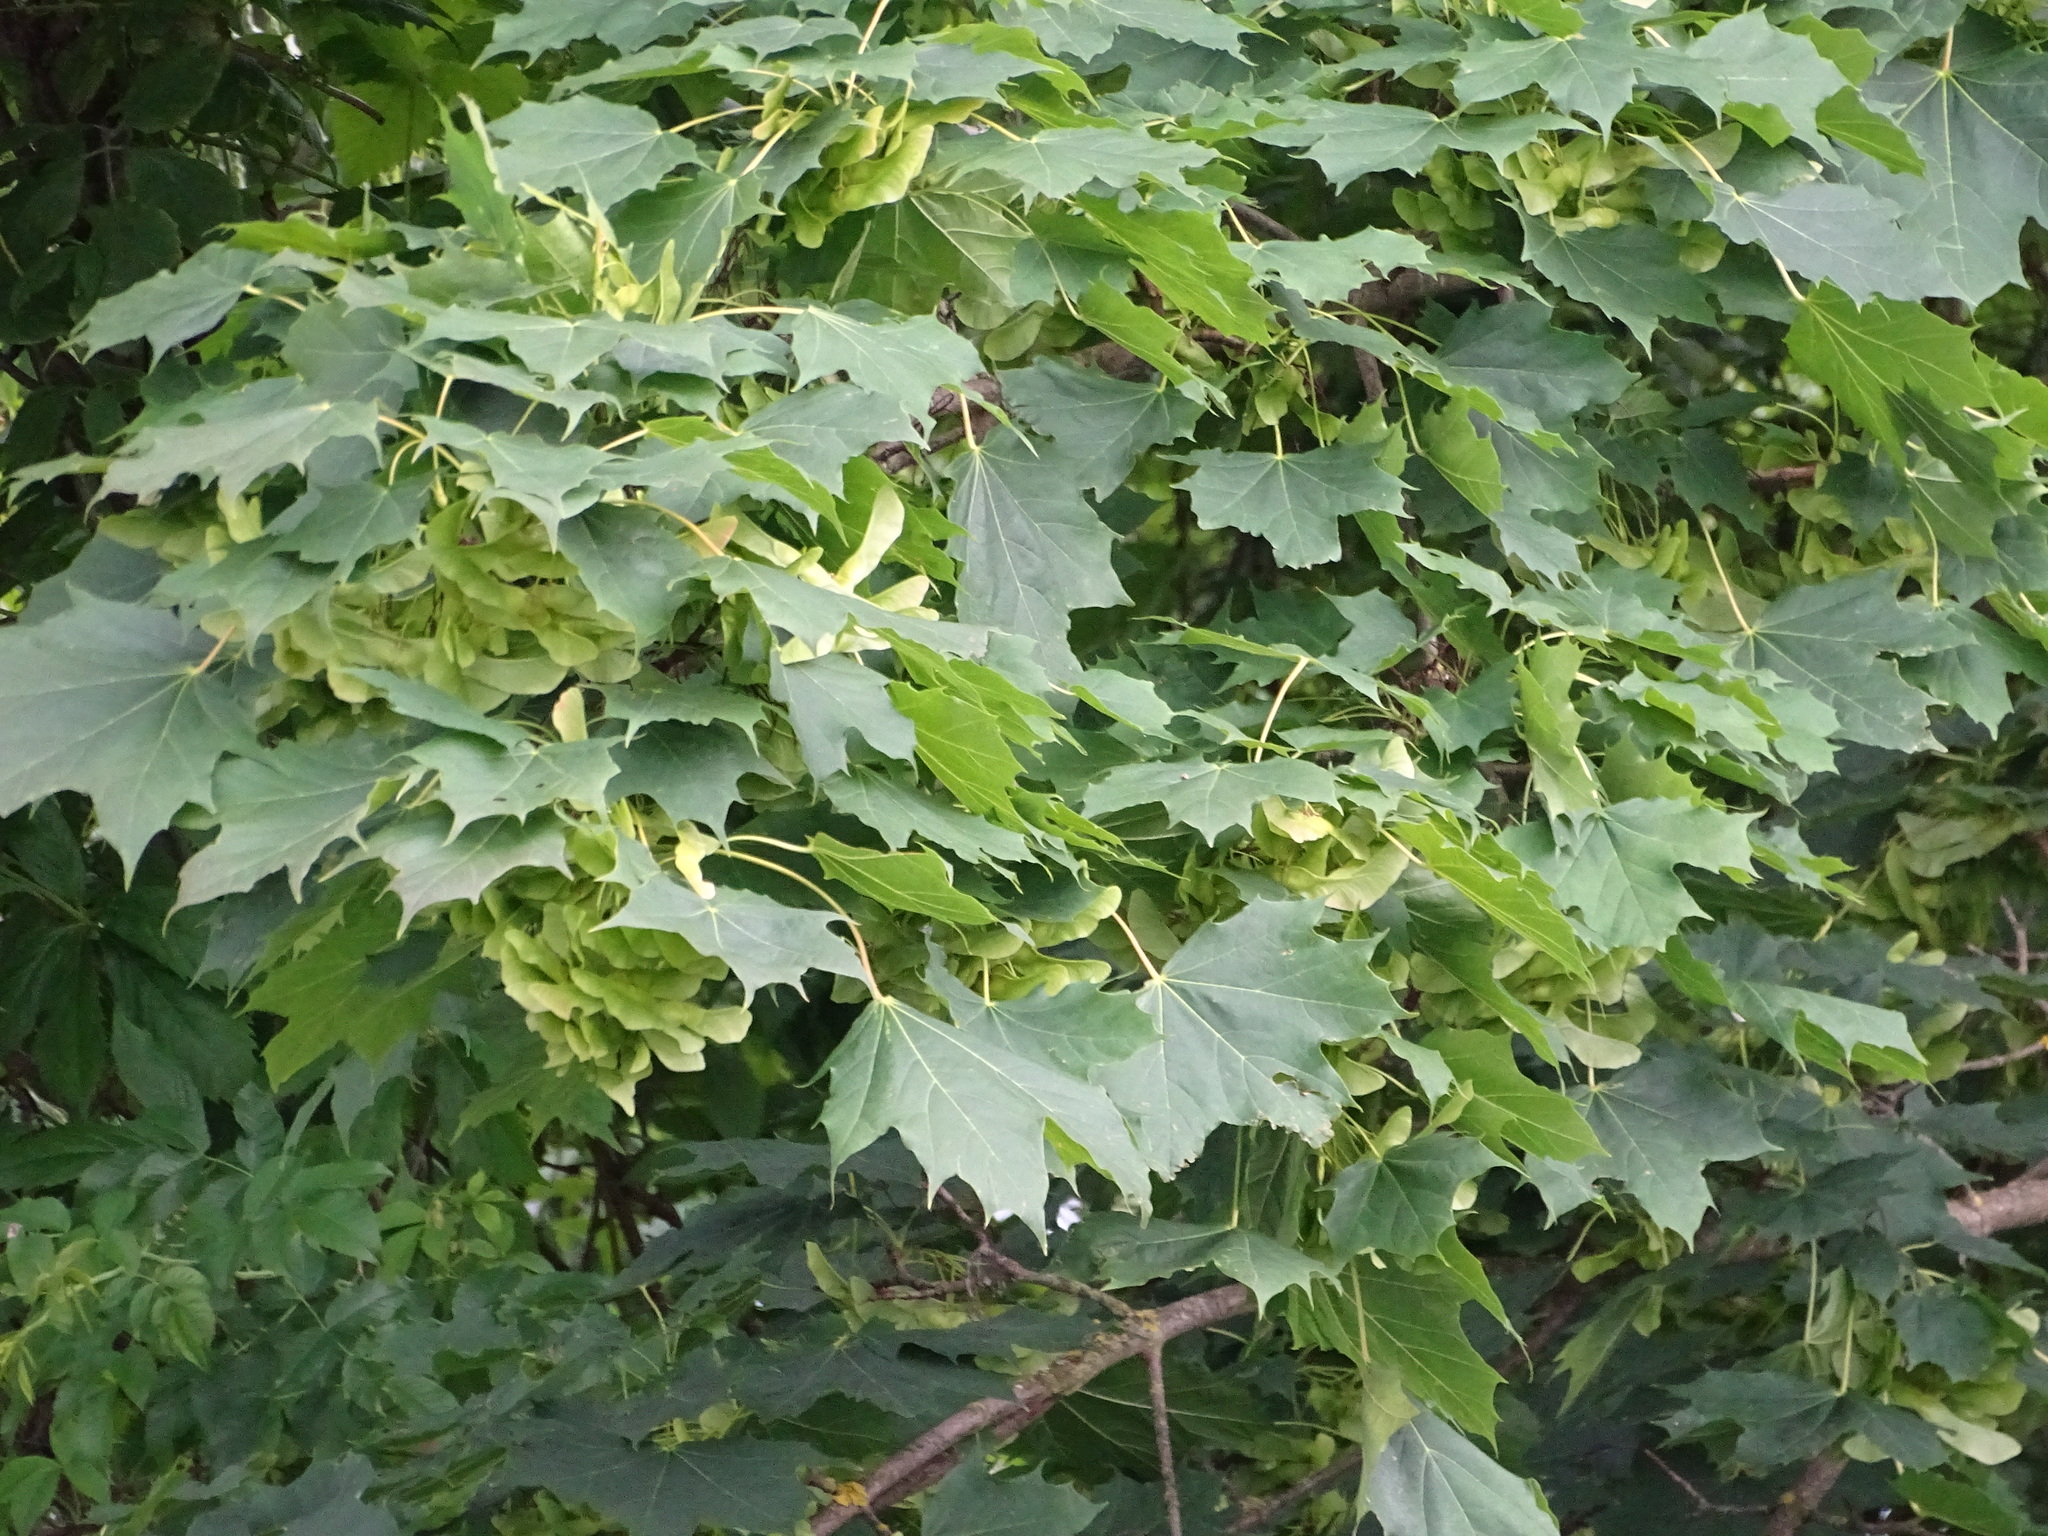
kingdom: Plantae
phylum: Tracheophyta
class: Magnoliopsida
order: Sapindales
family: Sapindaceae
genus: Acer
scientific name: Acer platanoides
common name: Norway maple
